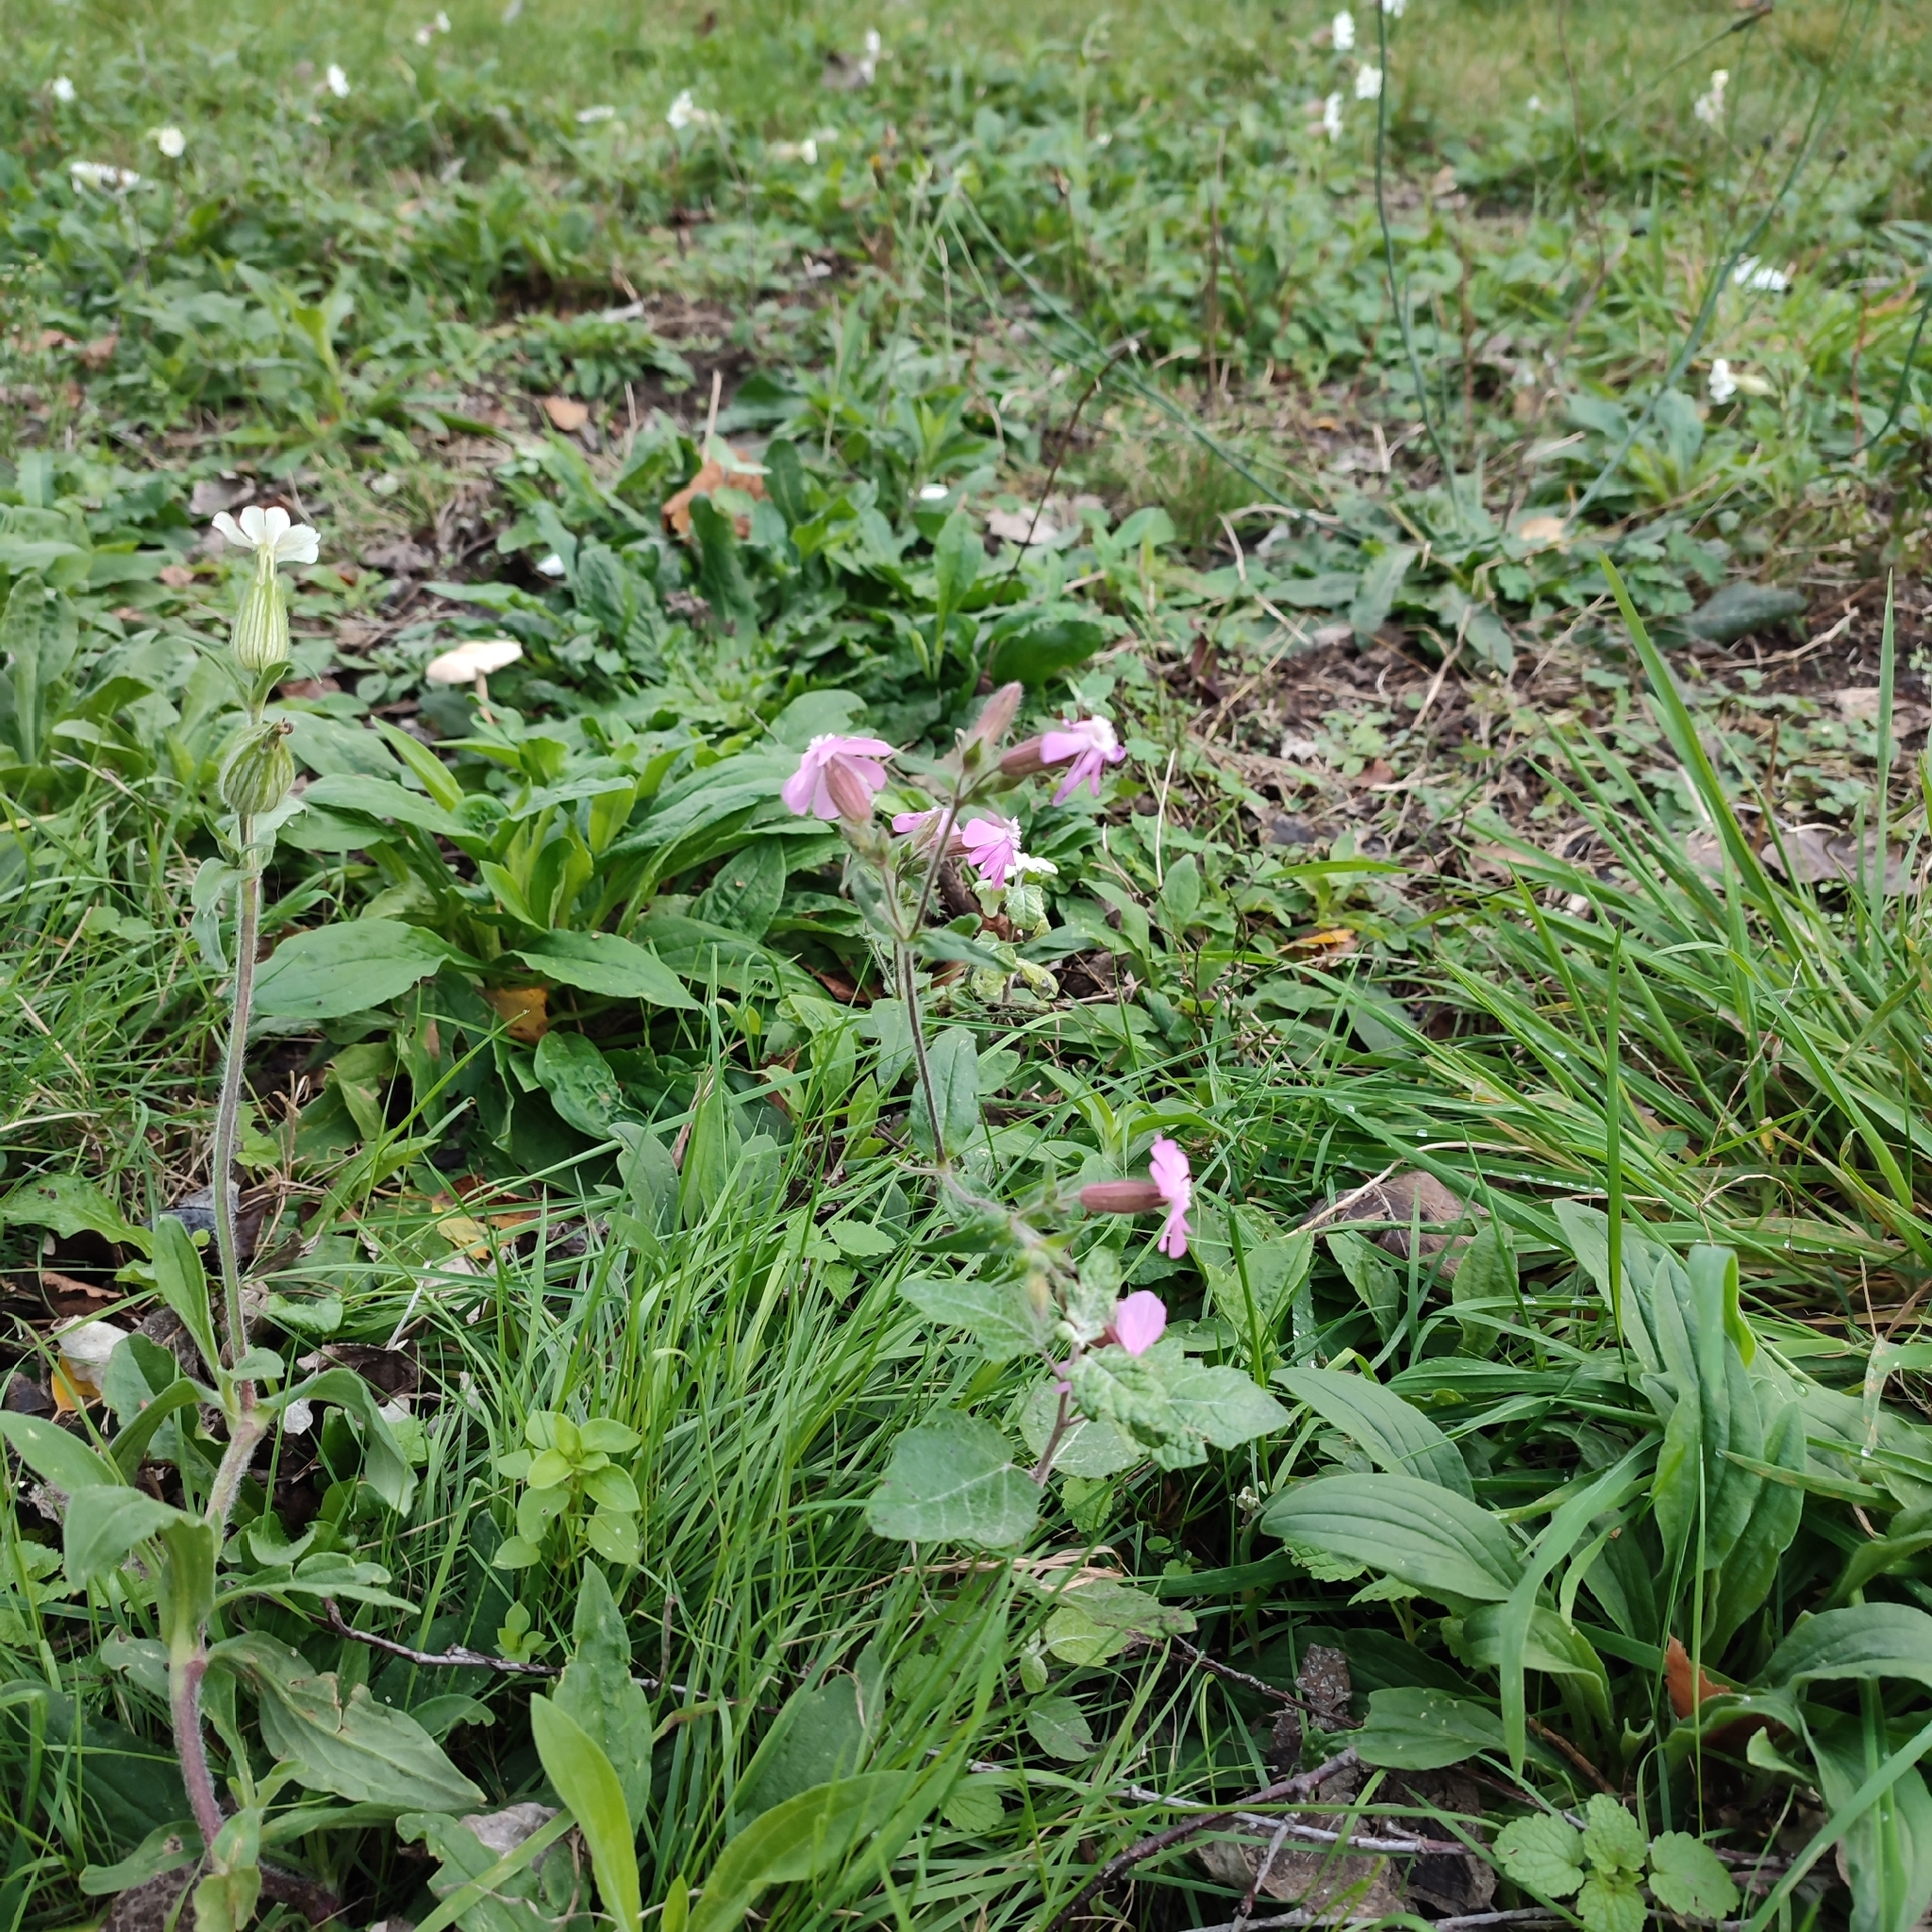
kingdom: Plantae
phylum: Tracheophyta
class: Magnoliopsida
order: Caryophyllales
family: Caryophyllaceae
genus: Silene
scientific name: Silene latifolia
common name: White campion
